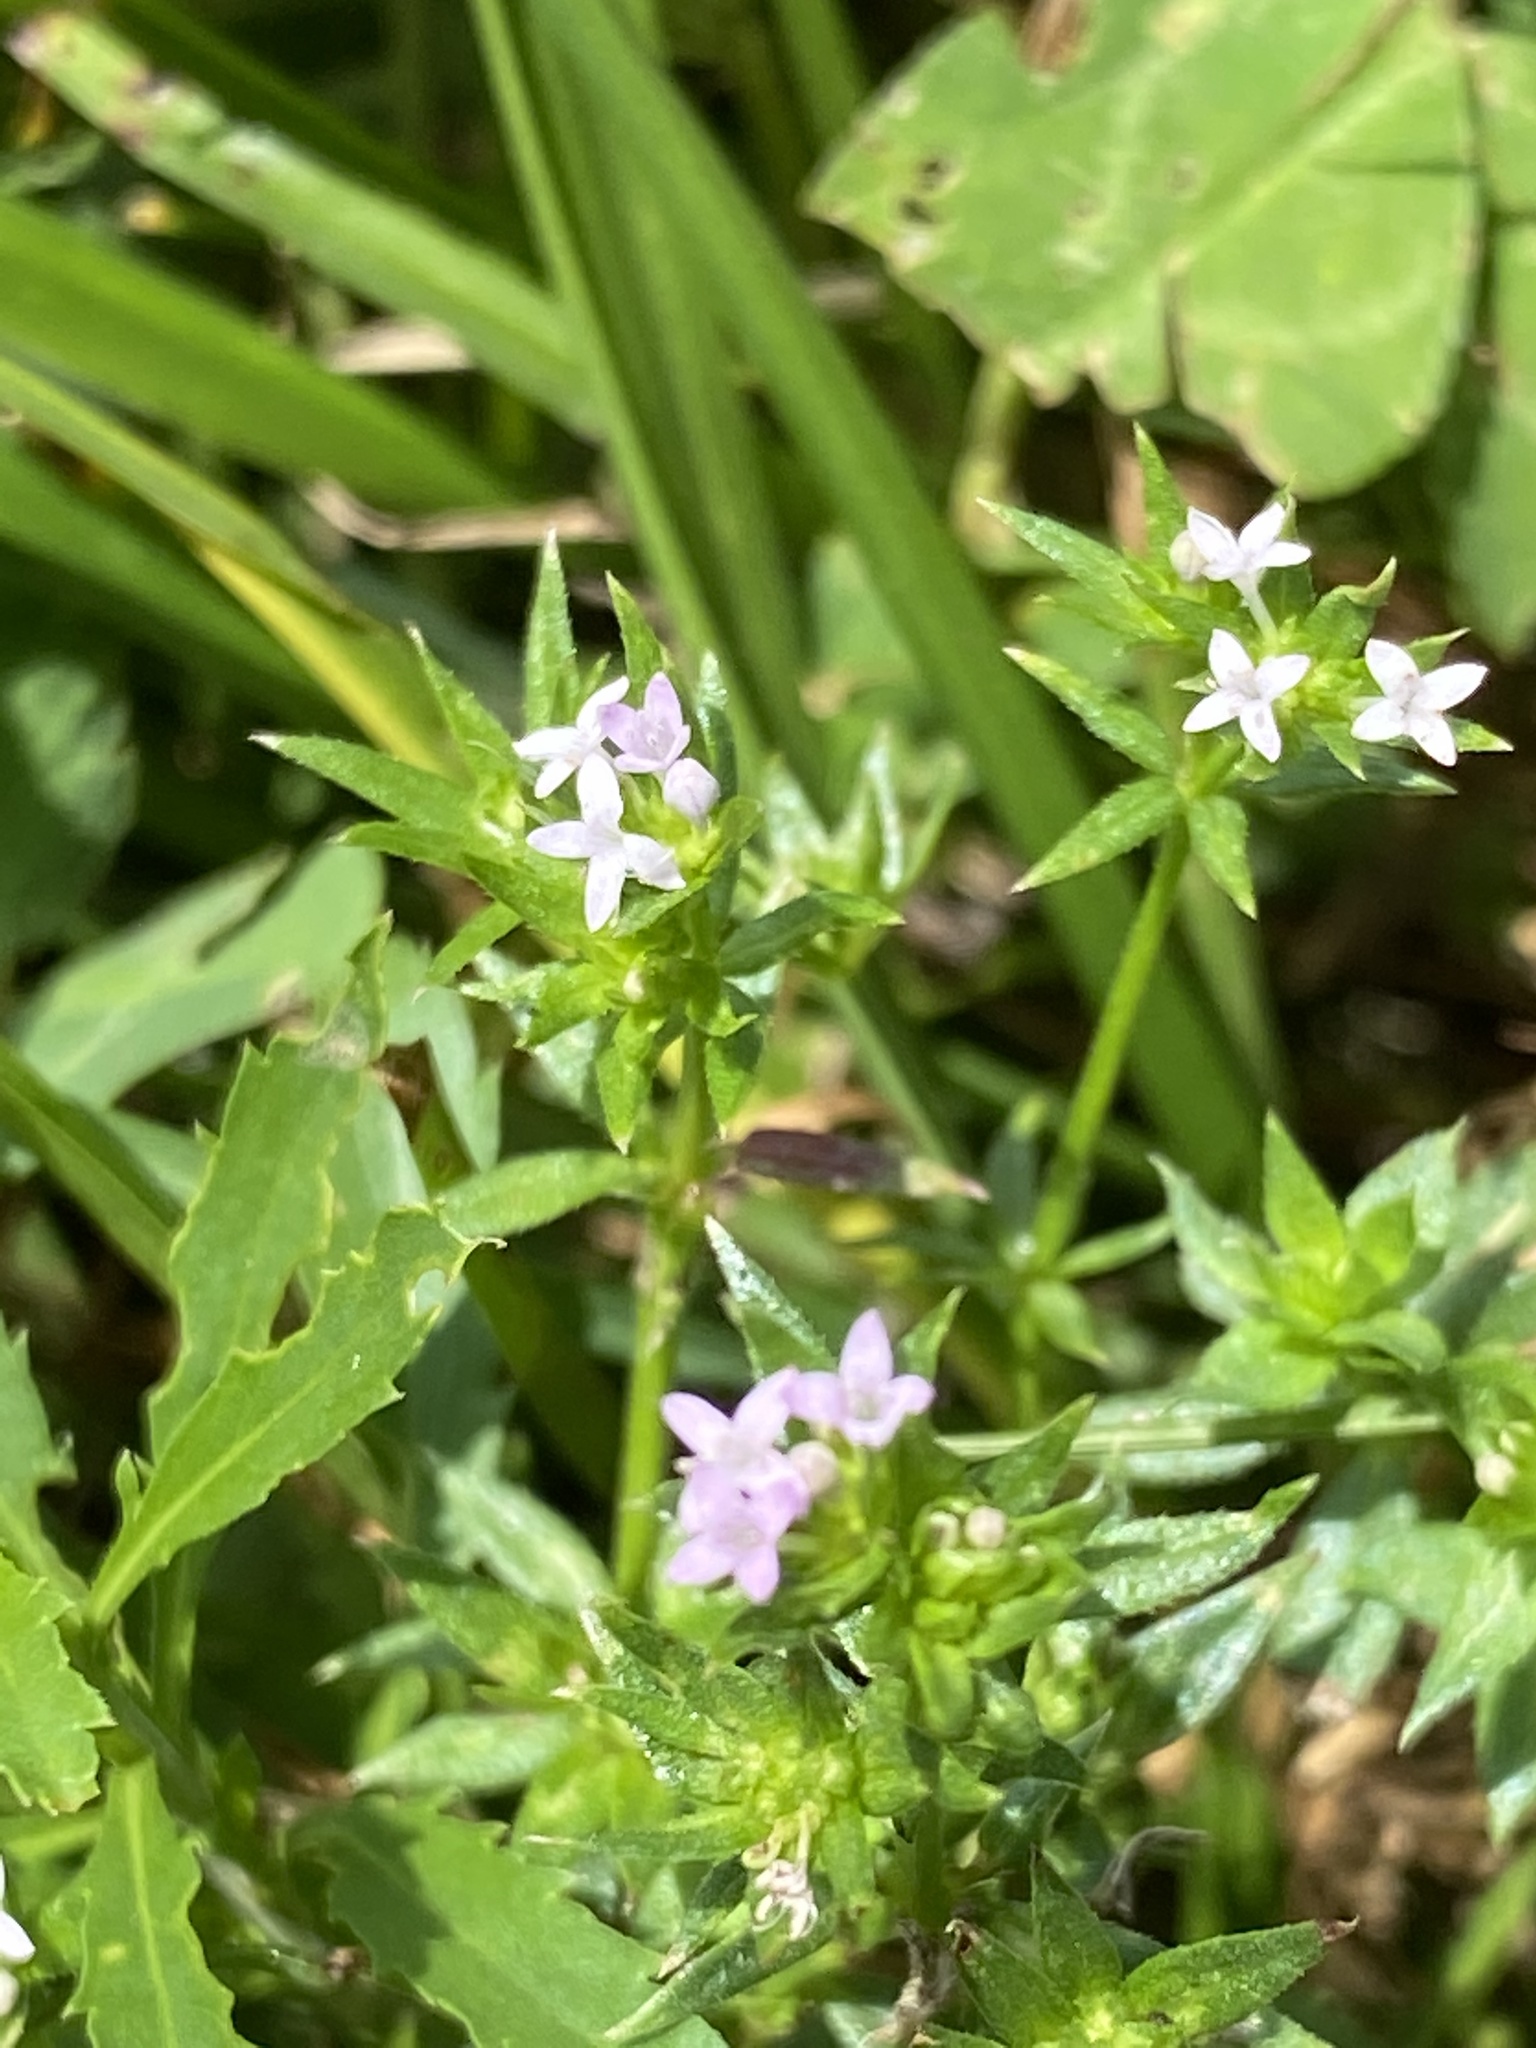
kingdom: Plantae
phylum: Tracheophyta
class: Magnoliopsida
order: Gentianales
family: Rubiaceae
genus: Sherardia
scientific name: Sherardia arvensis
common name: Field madder
